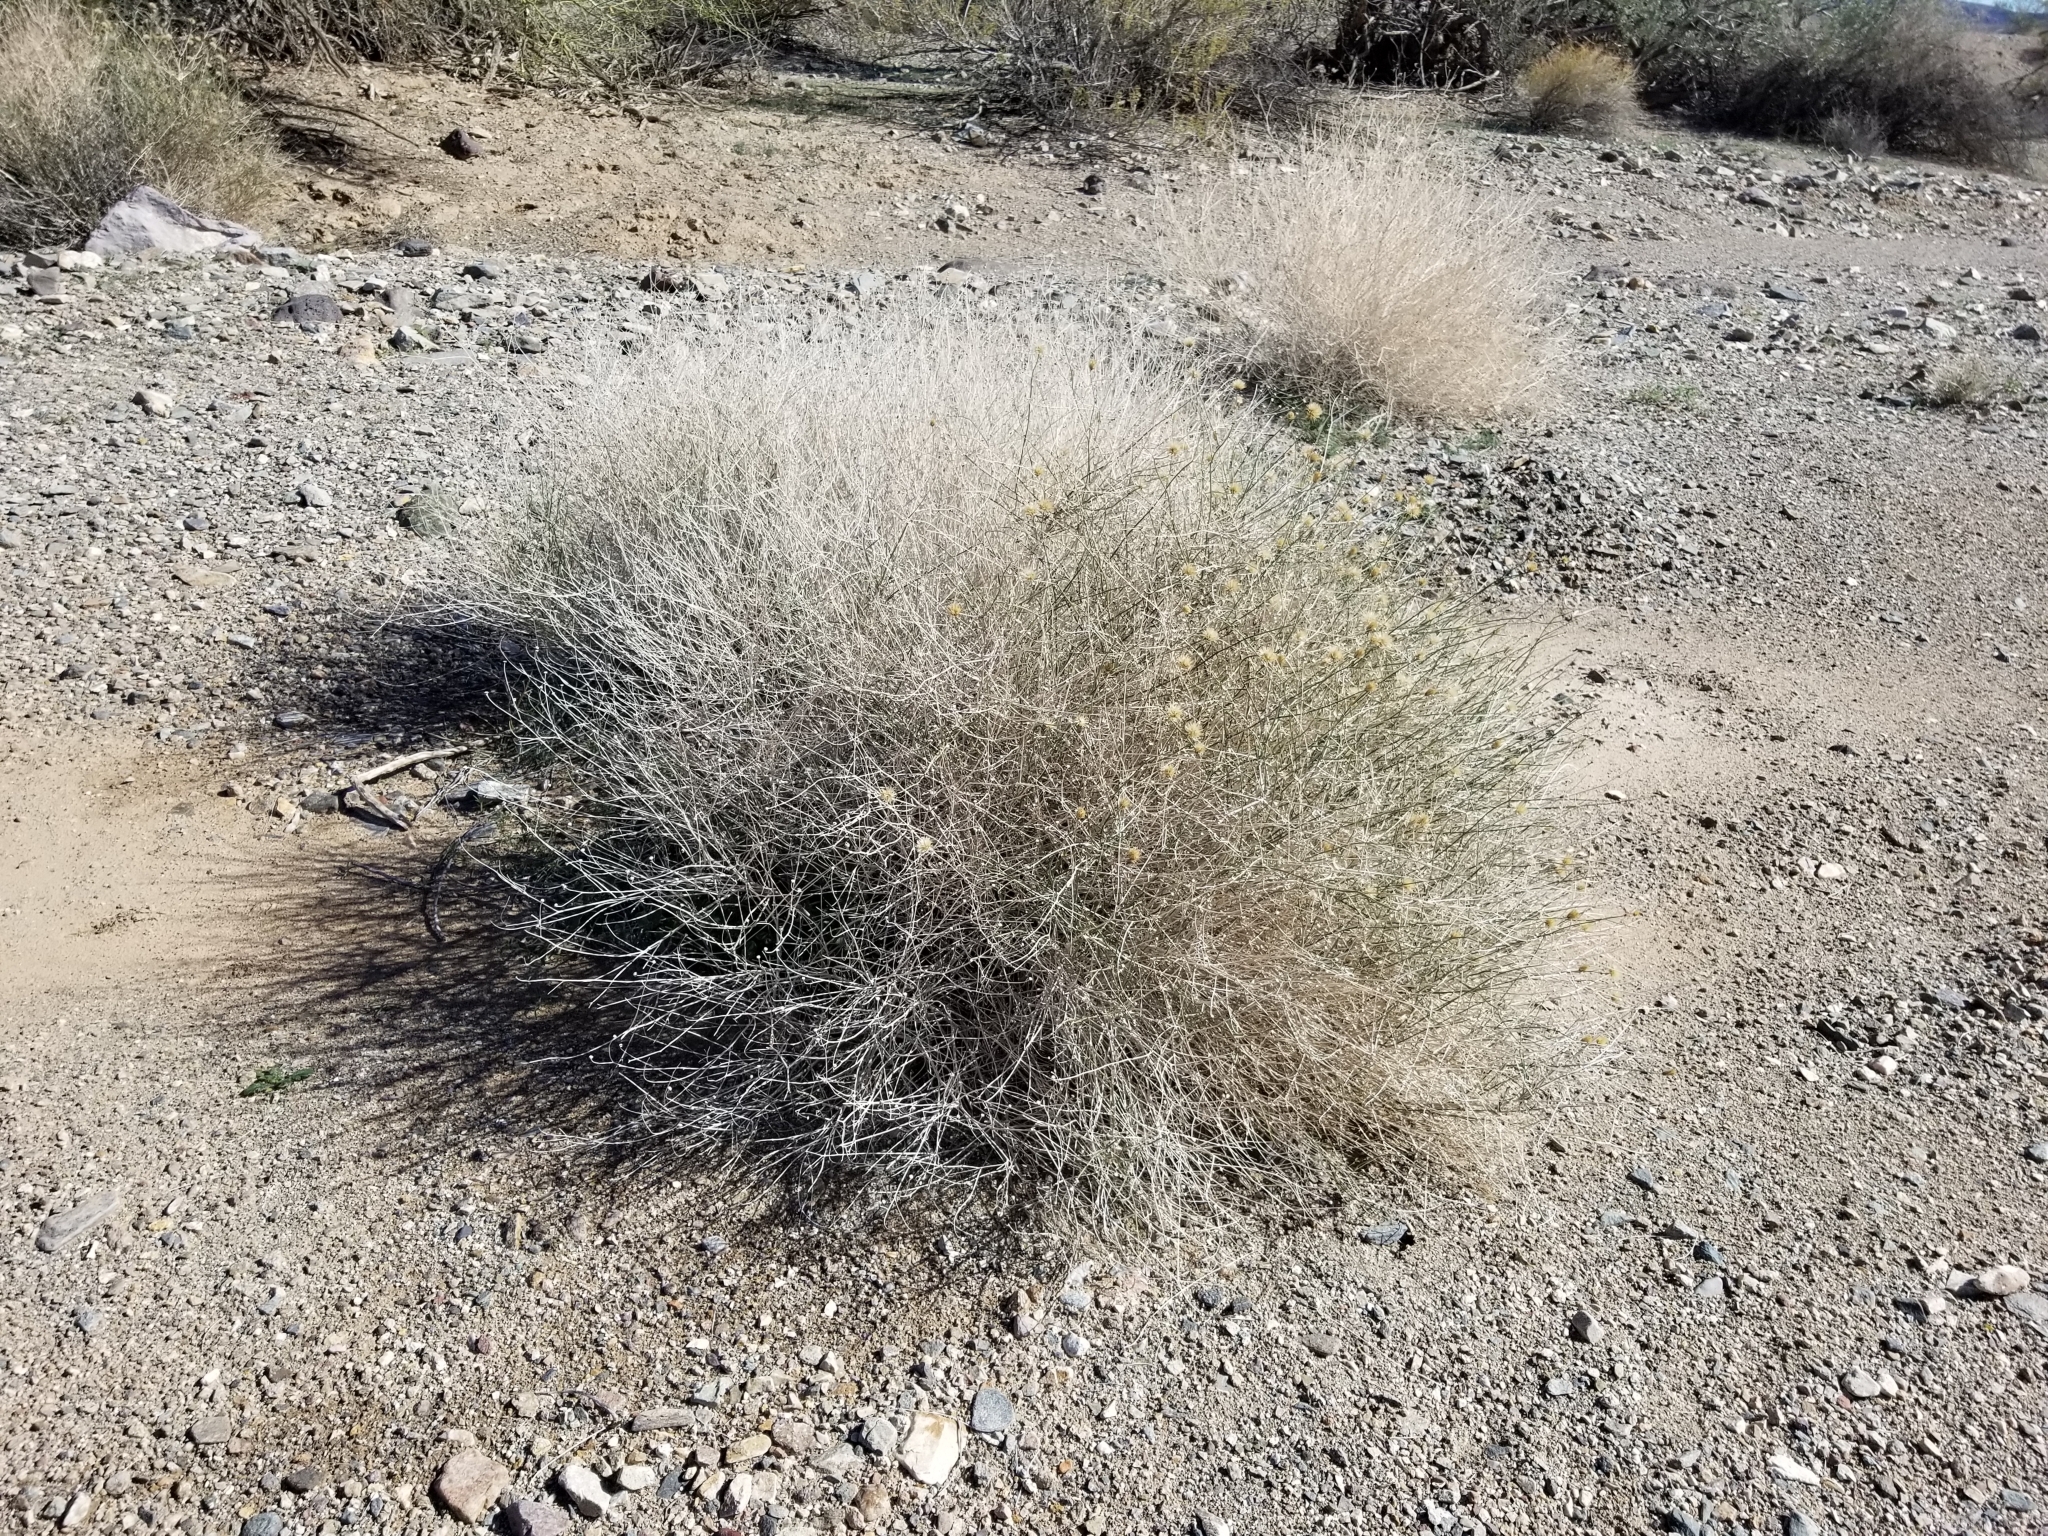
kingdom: Plantae
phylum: Tracheophyta
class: Magnoliopsida
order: Asterales
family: Asteraceae
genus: Bebbia
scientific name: Bebbia juncea
